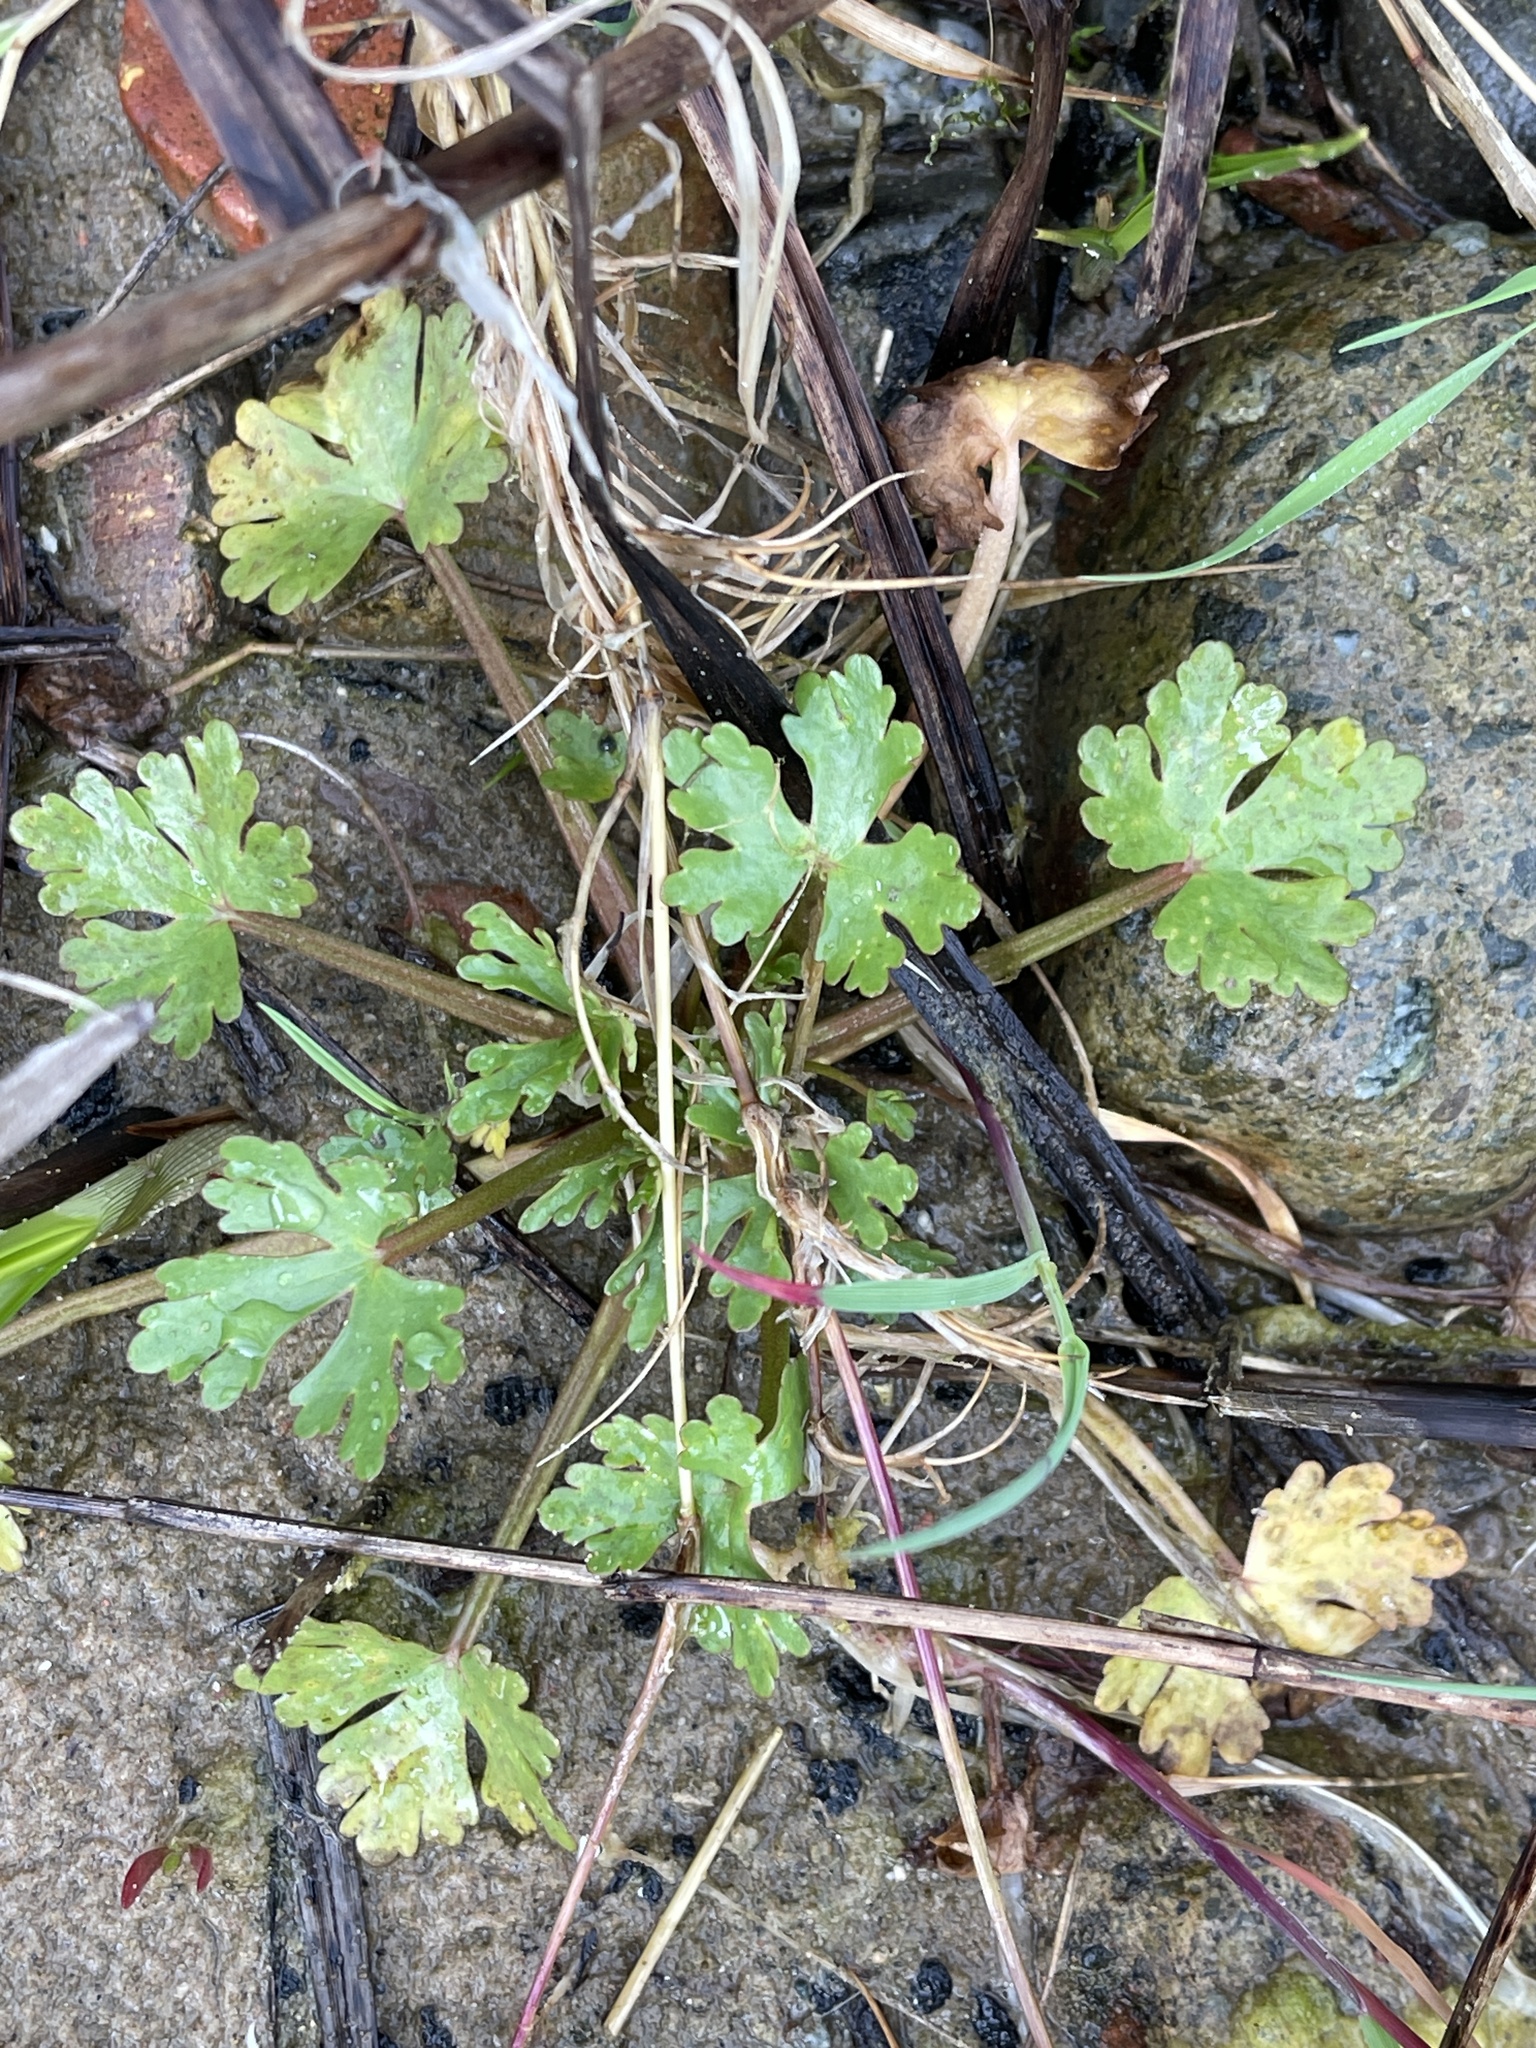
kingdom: Plantae
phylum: Tracheophyta
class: Magnoliopsida
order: Ranunculales
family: Ranunculaceae
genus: Ranunculus
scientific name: Ranunculus sceleratus
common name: Celery-leaved buttercup
